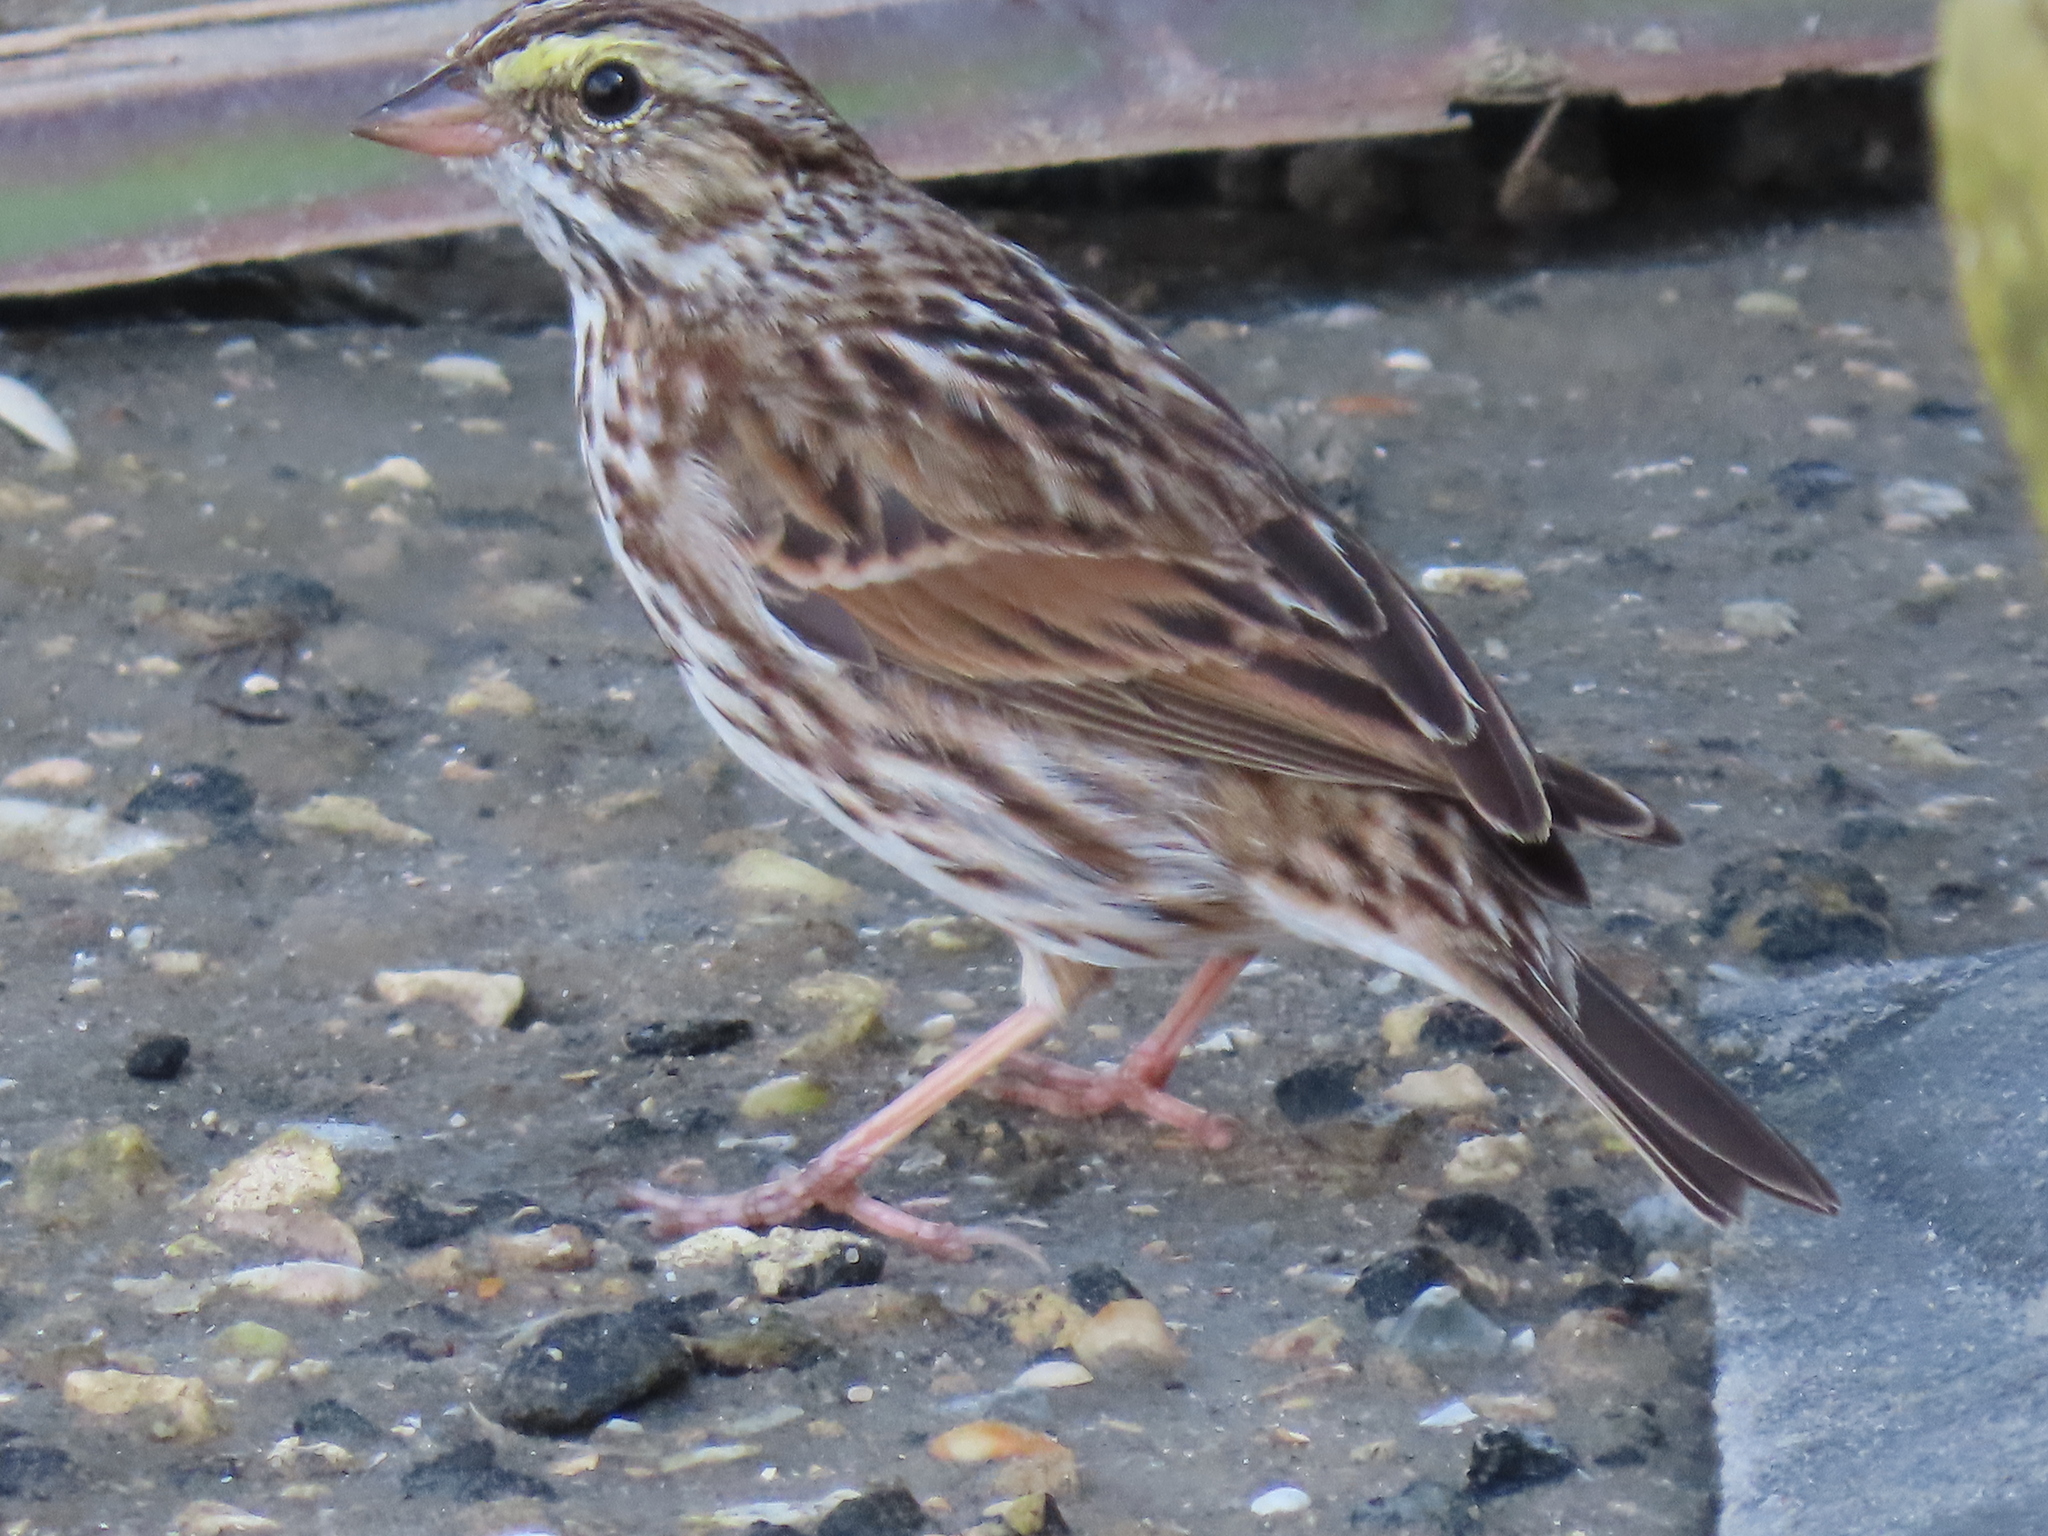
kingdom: Animalia
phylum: Chordata
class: Aves
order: Passeriformes
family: Passerellidae
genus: Passerculus
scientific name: Passerculus sandwichensis
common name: Savannah sparrow
